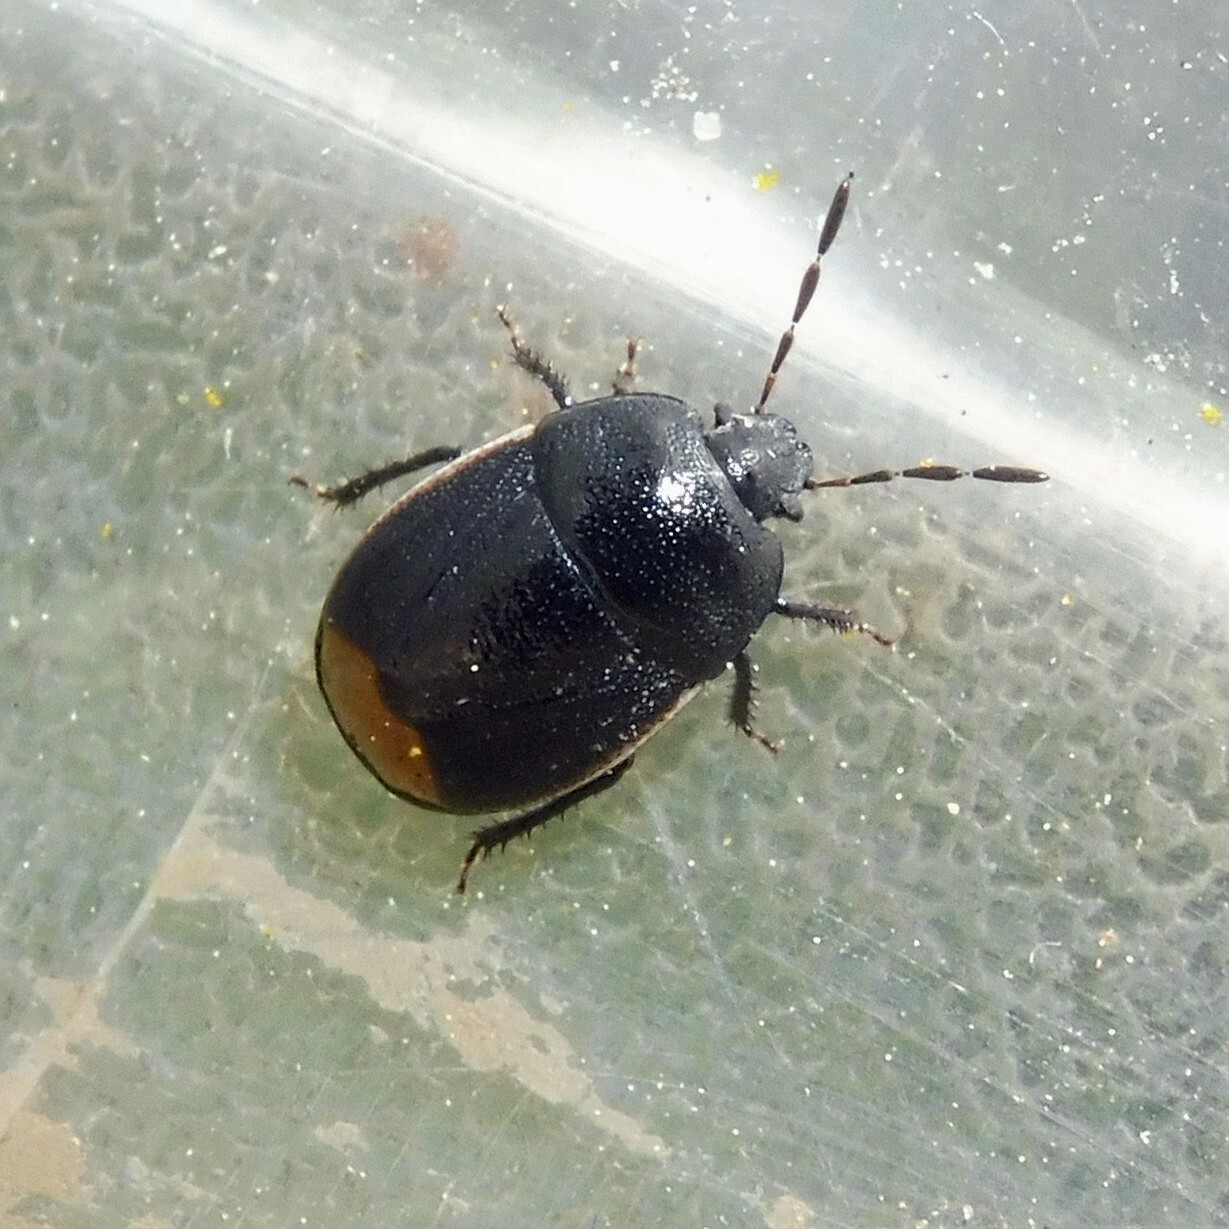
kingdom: Animalia
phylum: Arthropoda
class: Insecta
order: Hemiptera
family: Cydnidae
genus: Legnotus
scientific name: Legnotus limbosus
